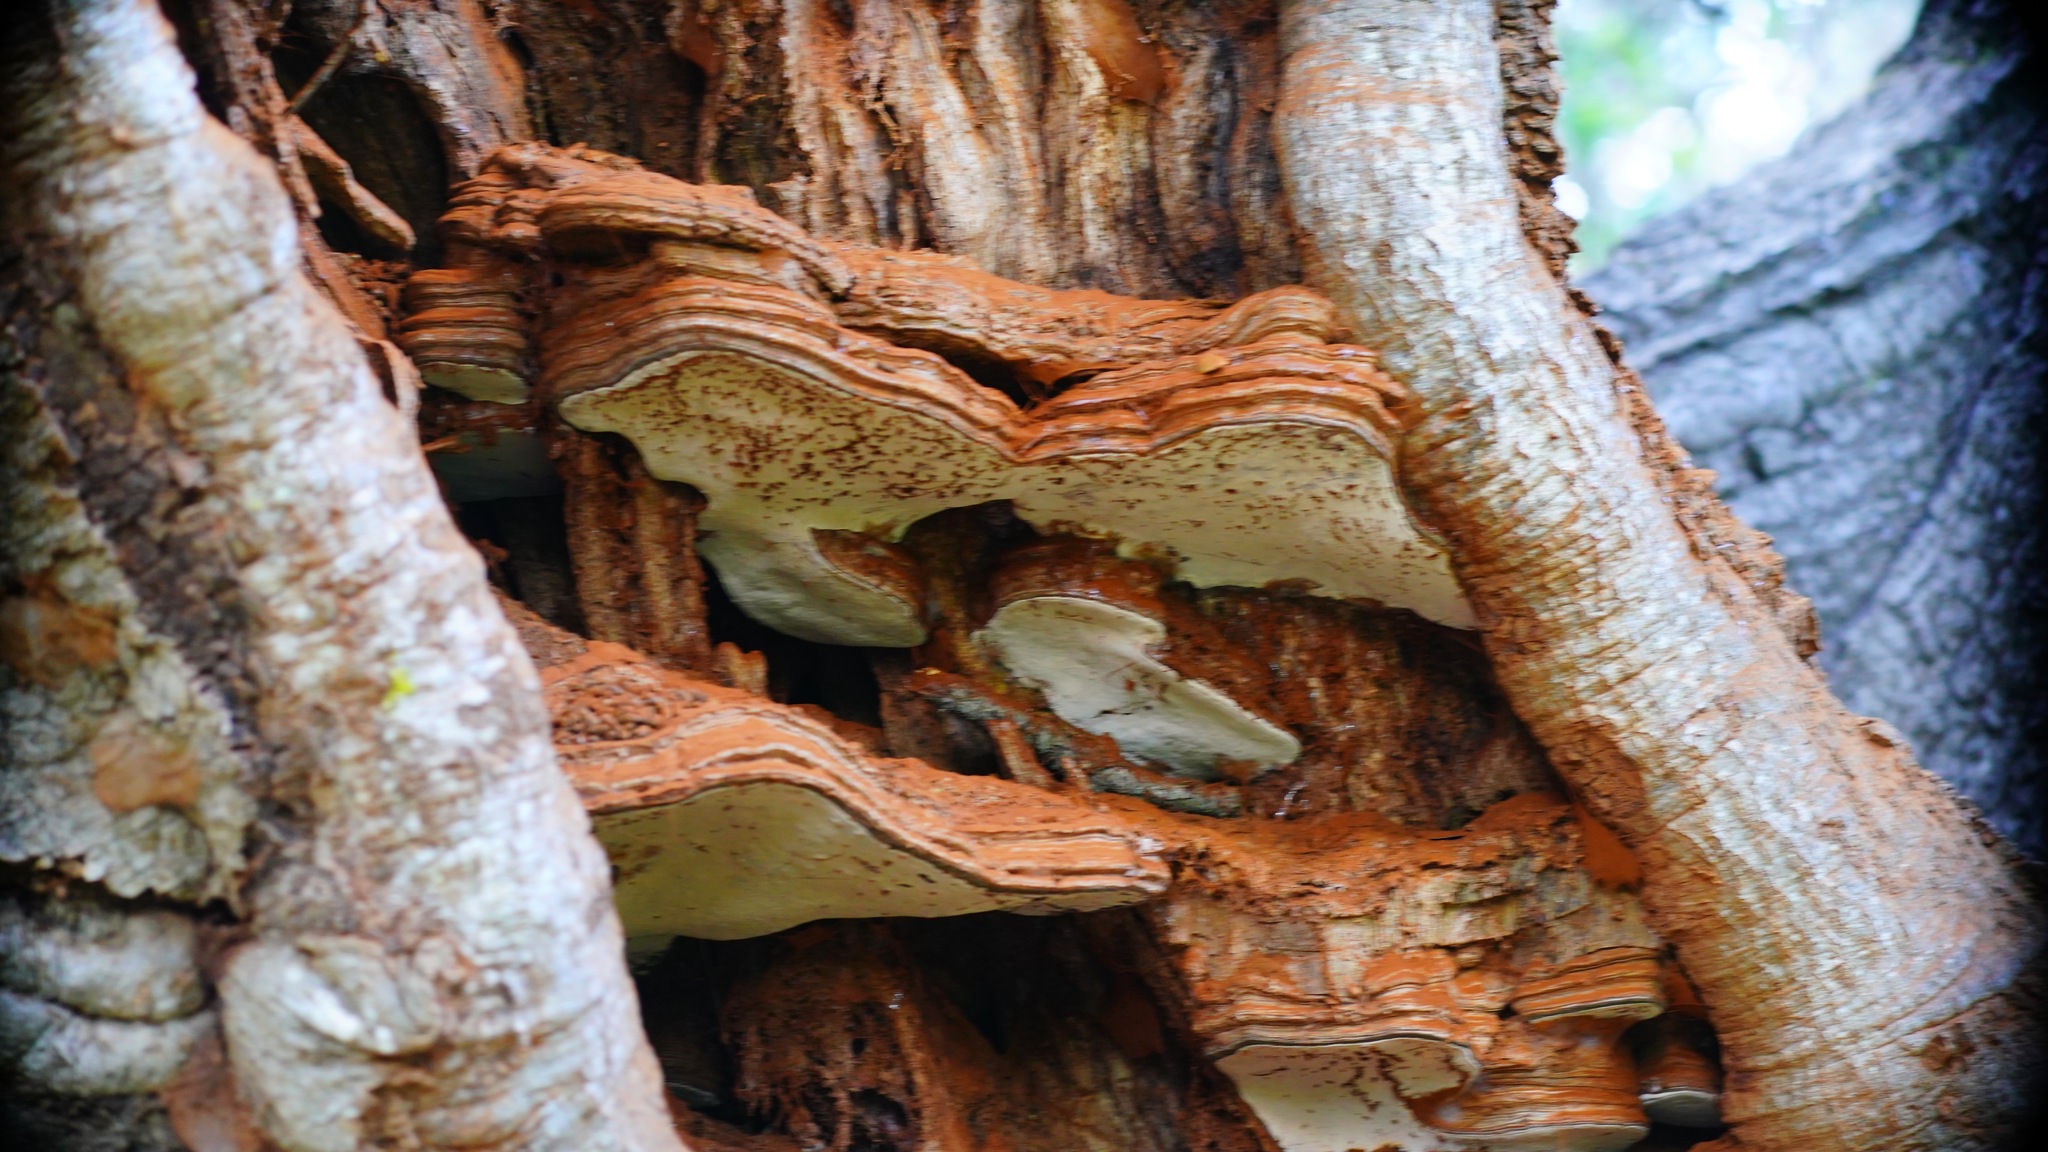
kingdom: Fungi
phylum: Basidiomycota
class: Agaricomycetes
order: Polyporales
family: Polyporaceae
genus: Ganoderma
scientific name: Ganoderma brownii
